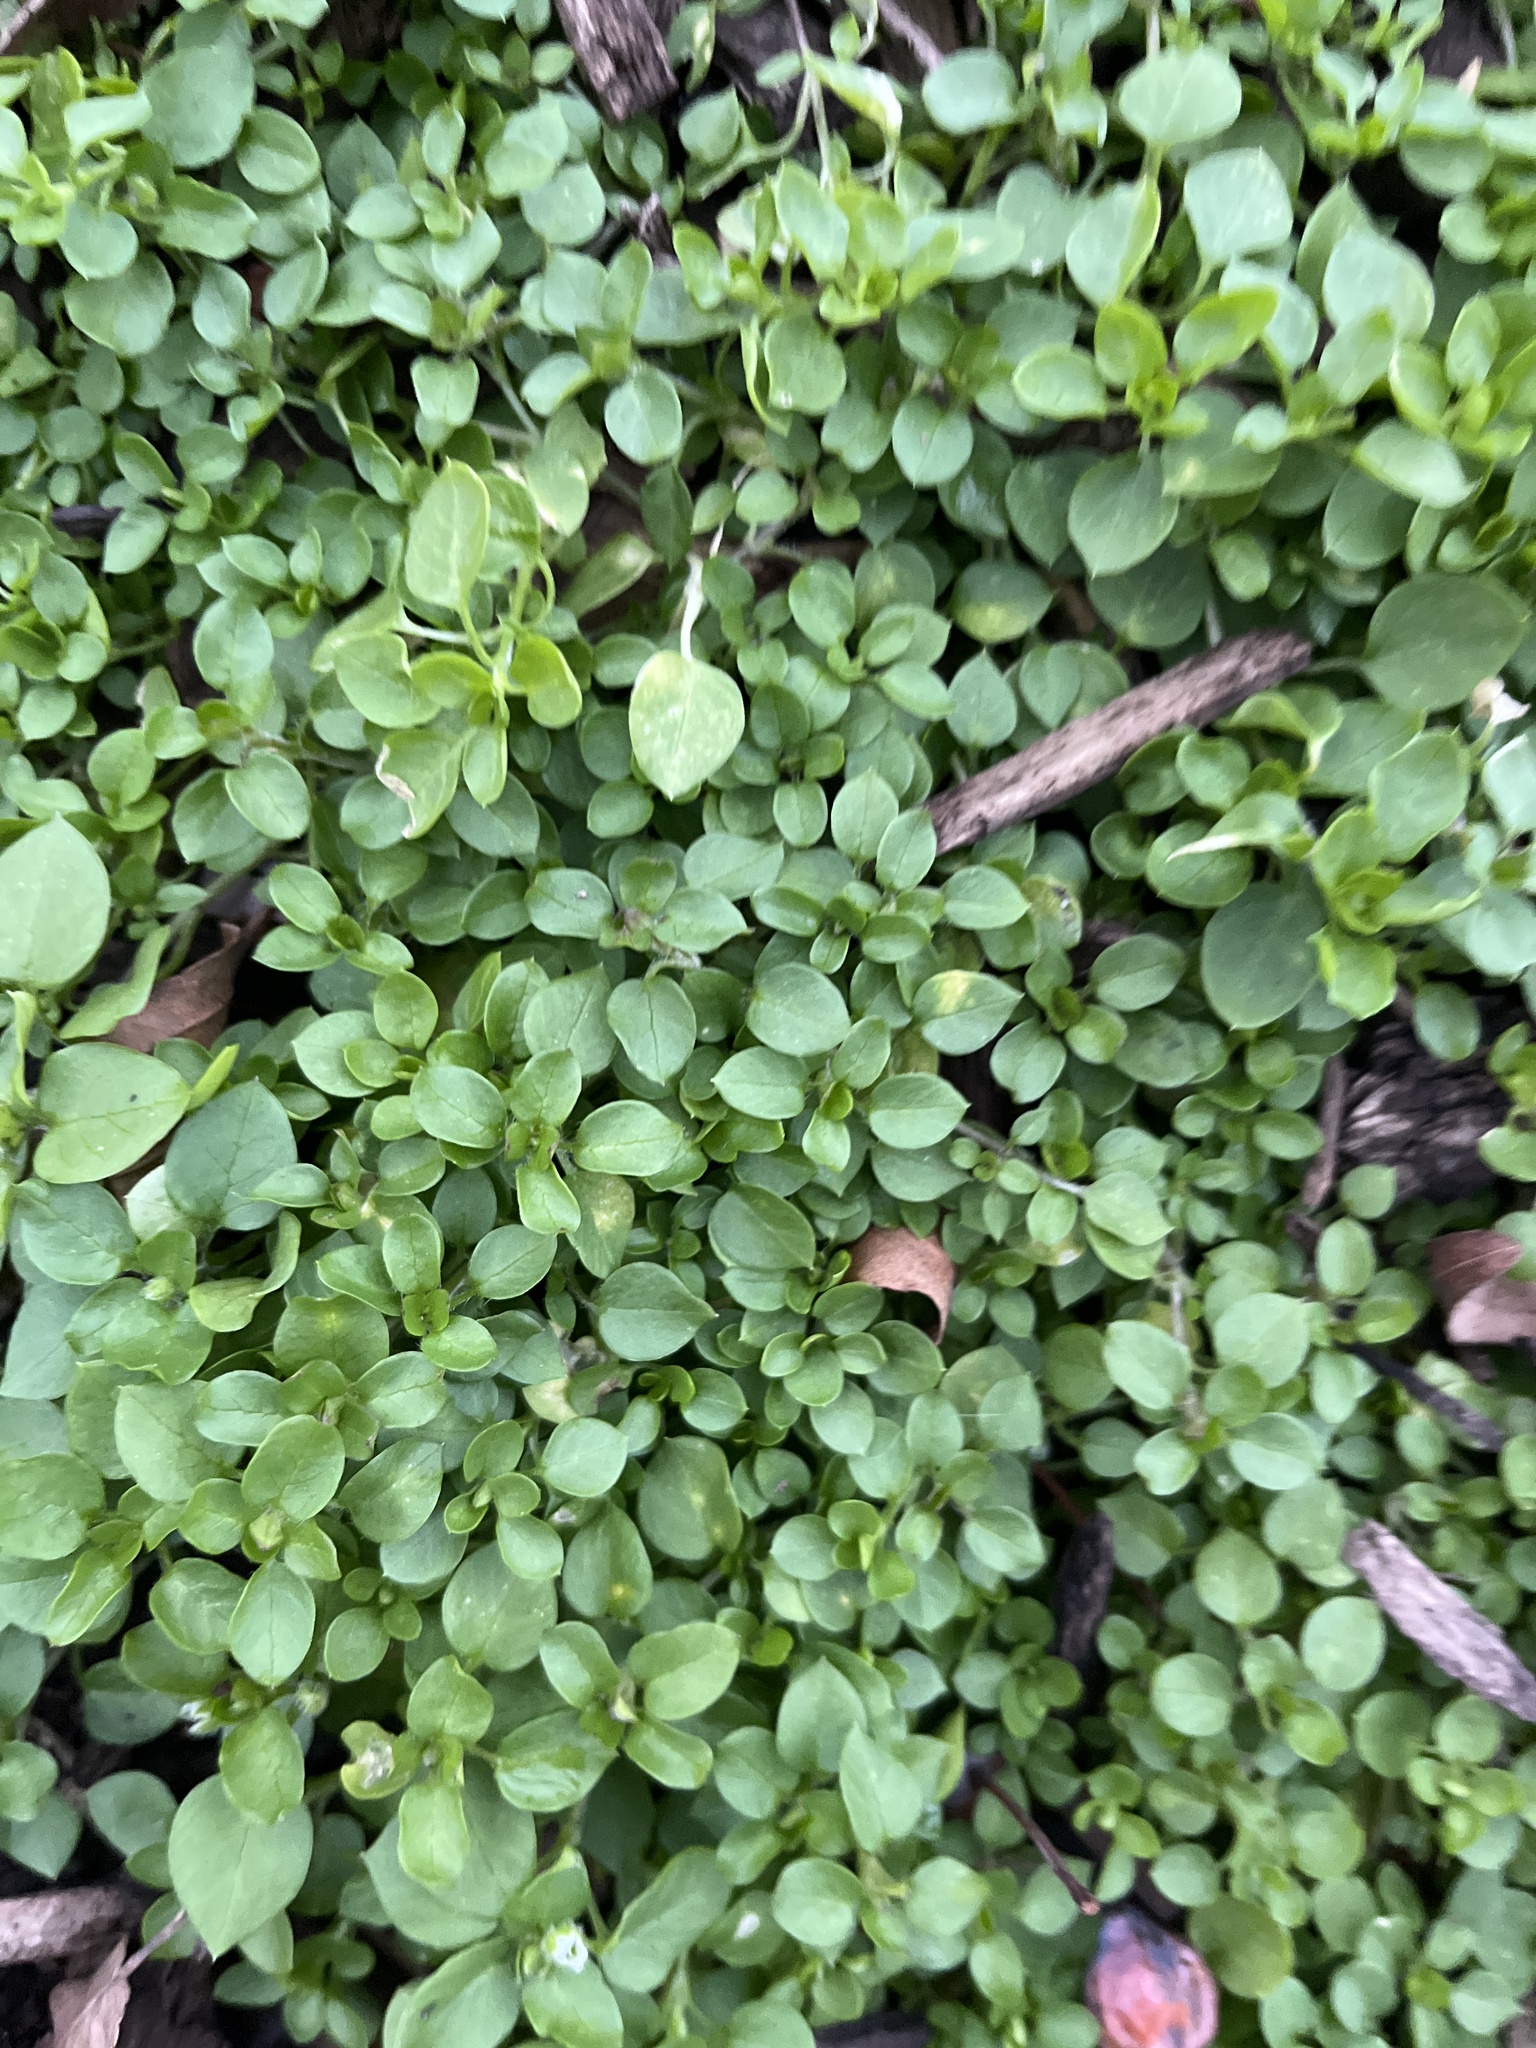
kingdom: Plantae
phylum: Tracheophyta
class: Magnoliopsida
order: Caryophyllales
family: Caryophyllaceae
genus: Stellaria
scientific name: Stellaria media
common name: Common chickweed
